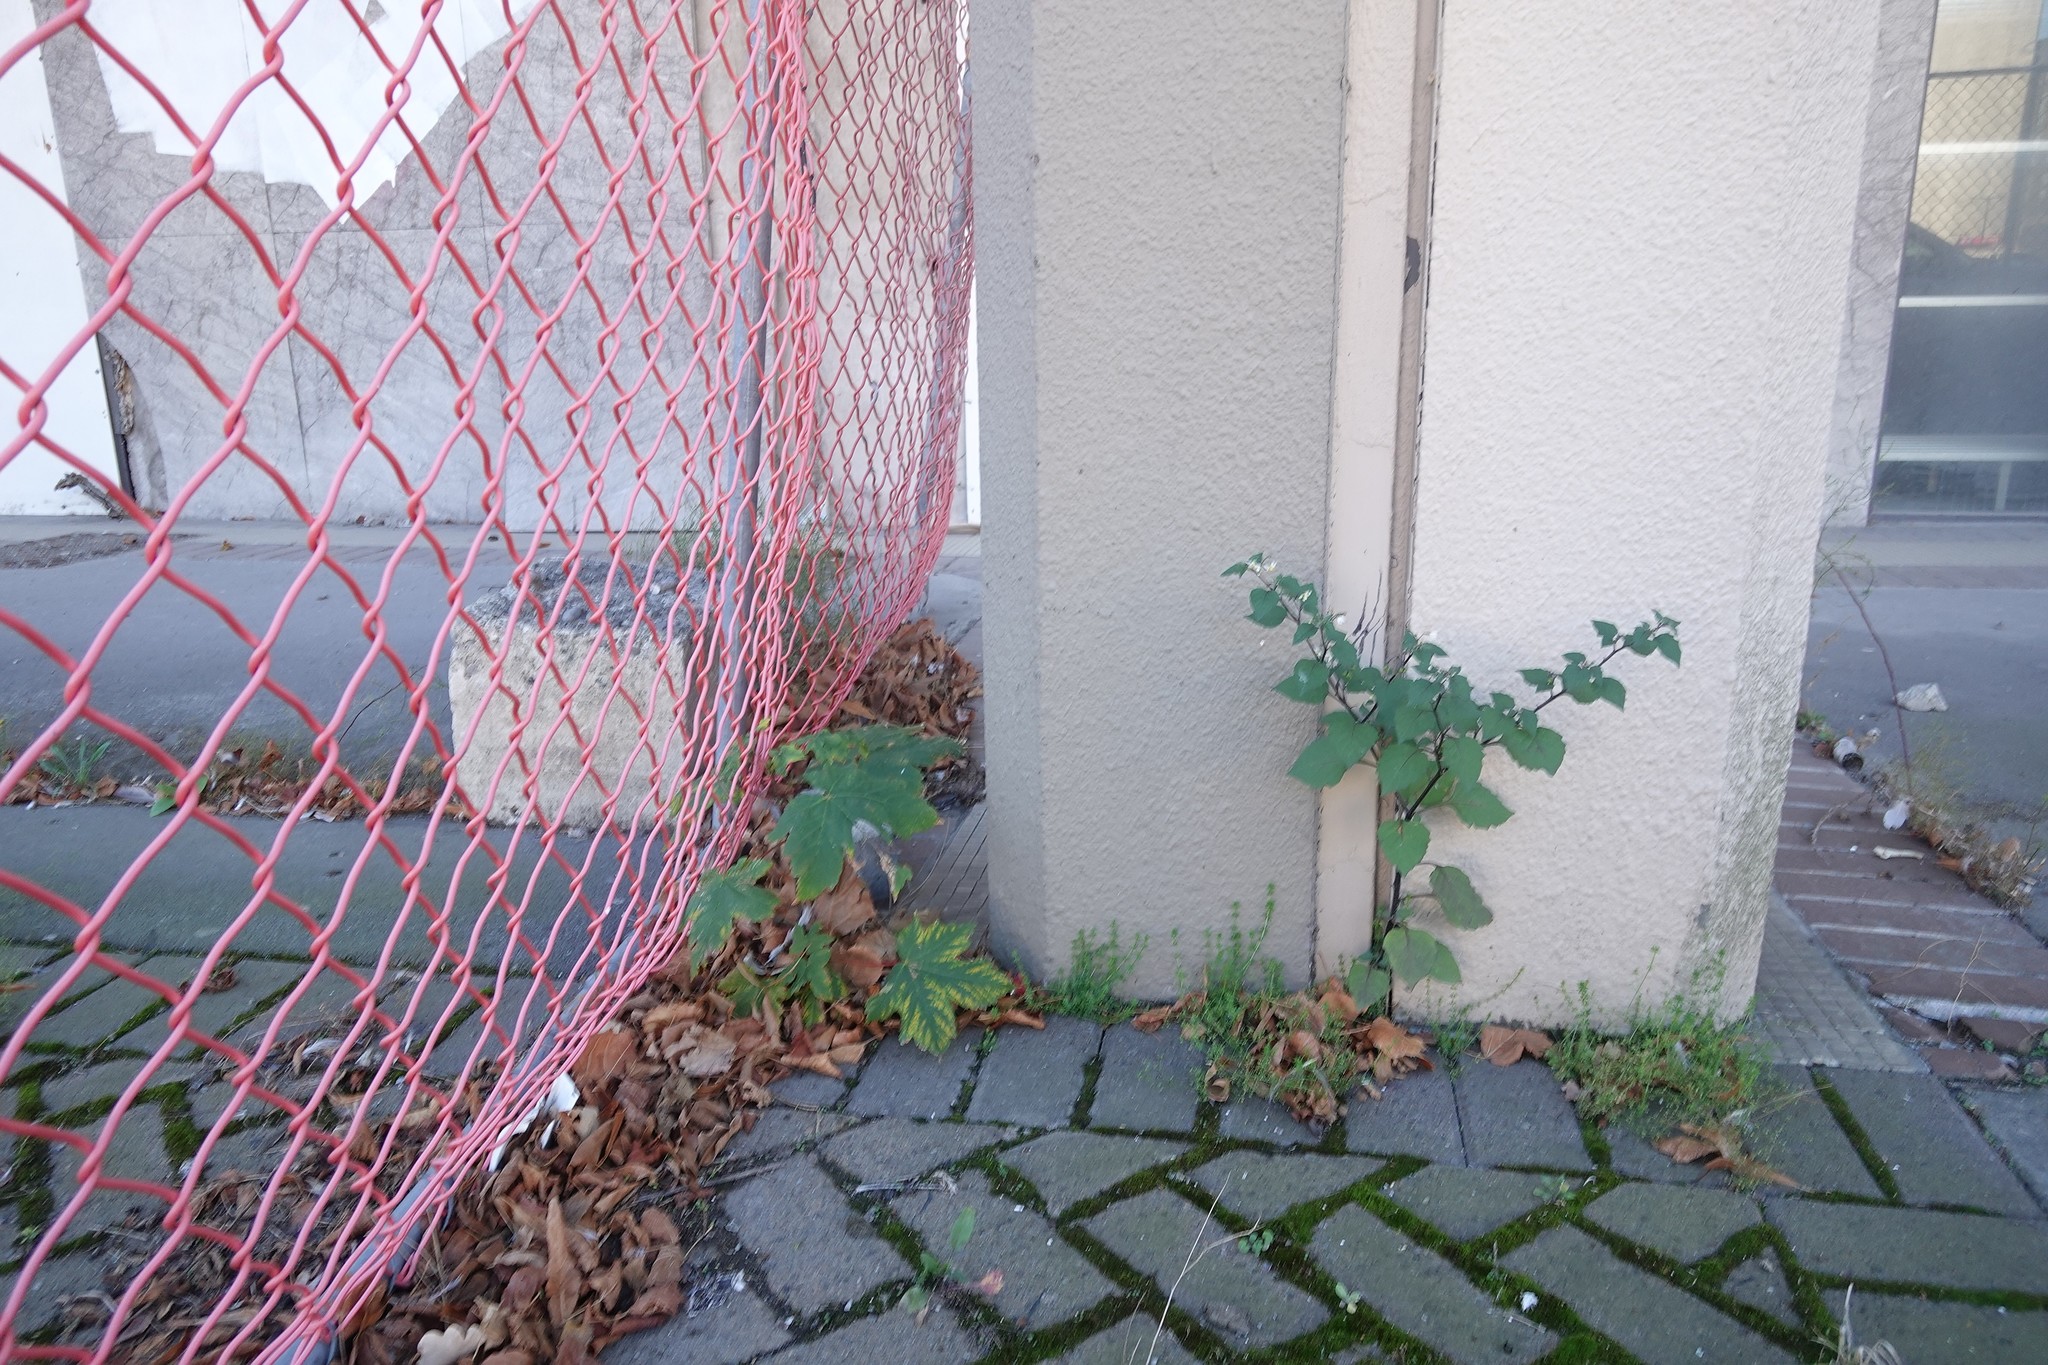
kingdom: Plantae
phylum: Tracheophyta
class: Magnoliopsida
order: Sapindales
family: Sapindaceae
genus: Acer
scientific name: Acer pseudoplatanus
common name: Sycamore
